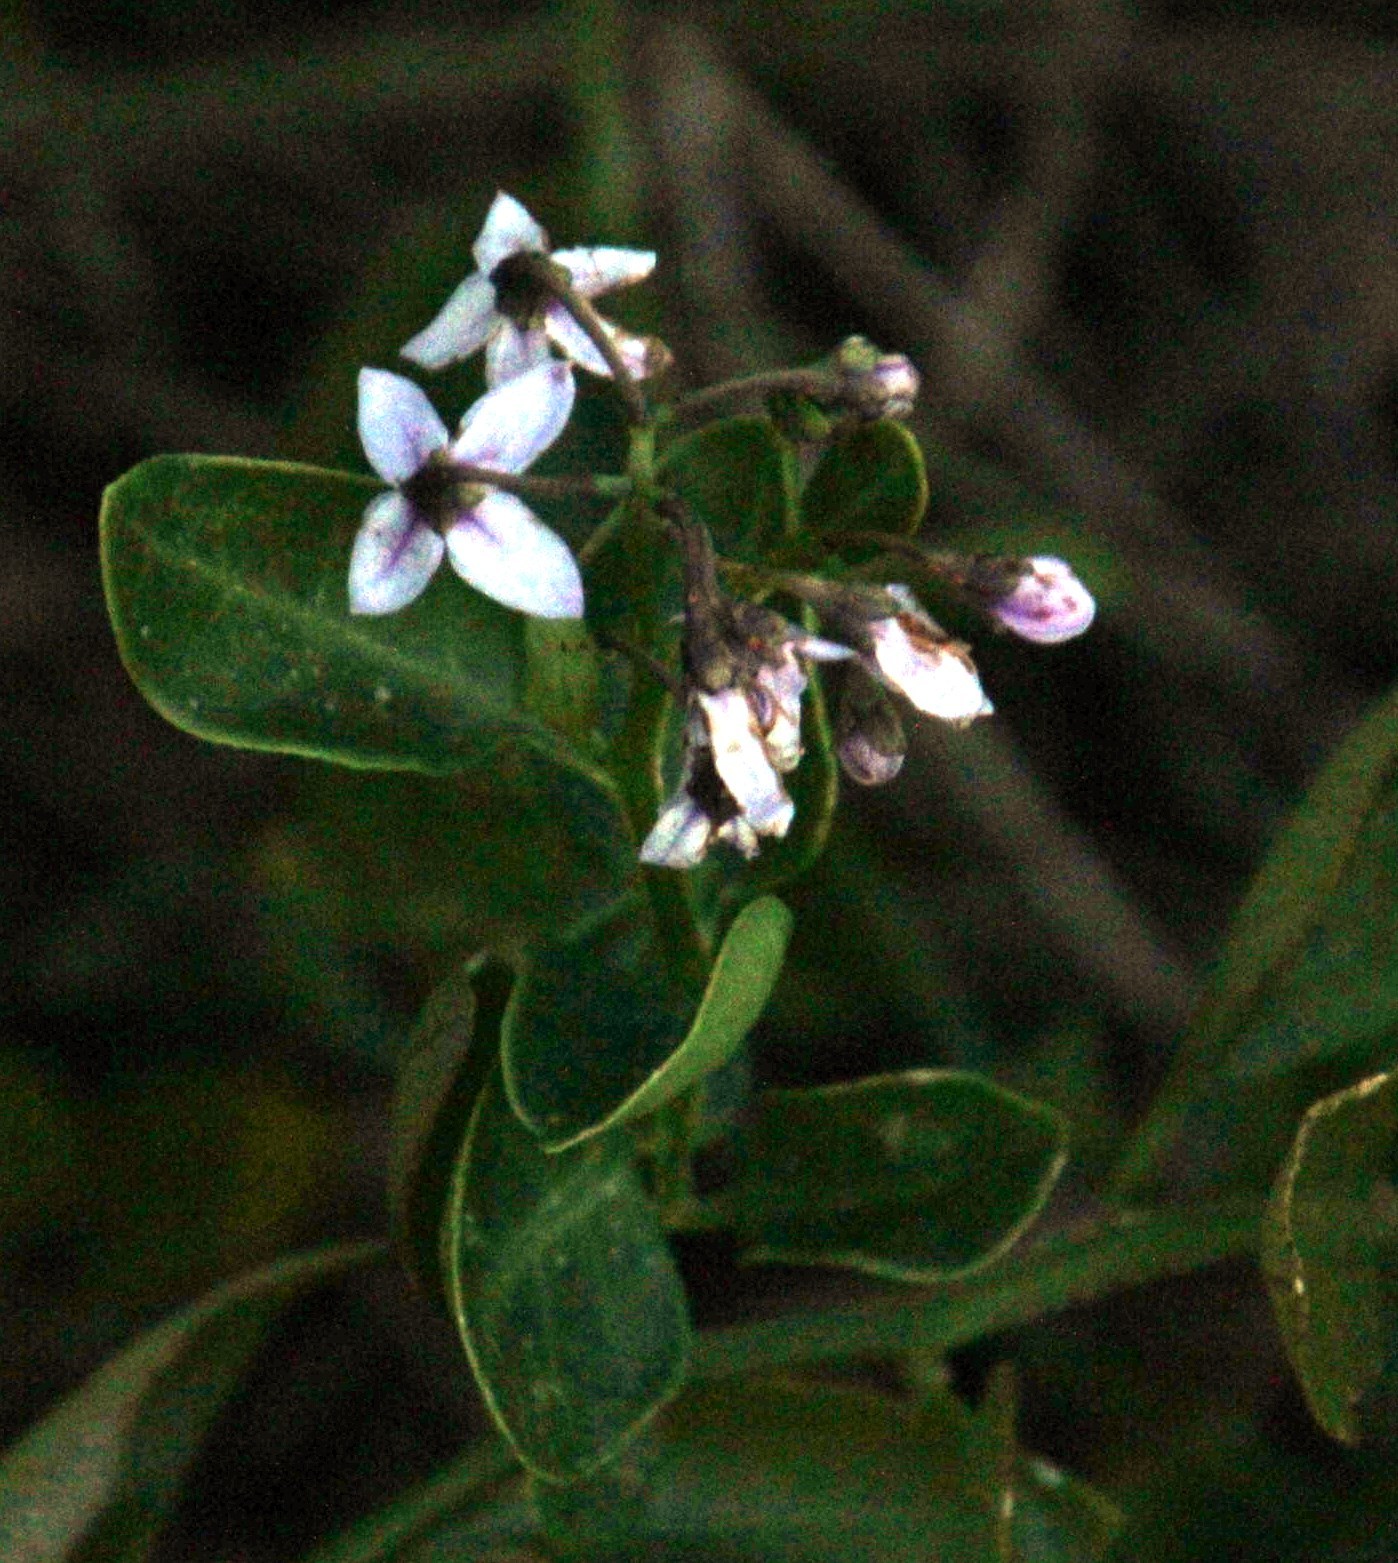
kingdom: Plantae
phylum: Tracheophyta
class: Magnoliopsida
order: Solanales
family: Solanaceae
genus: Solanum
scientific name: Solanum africanum
